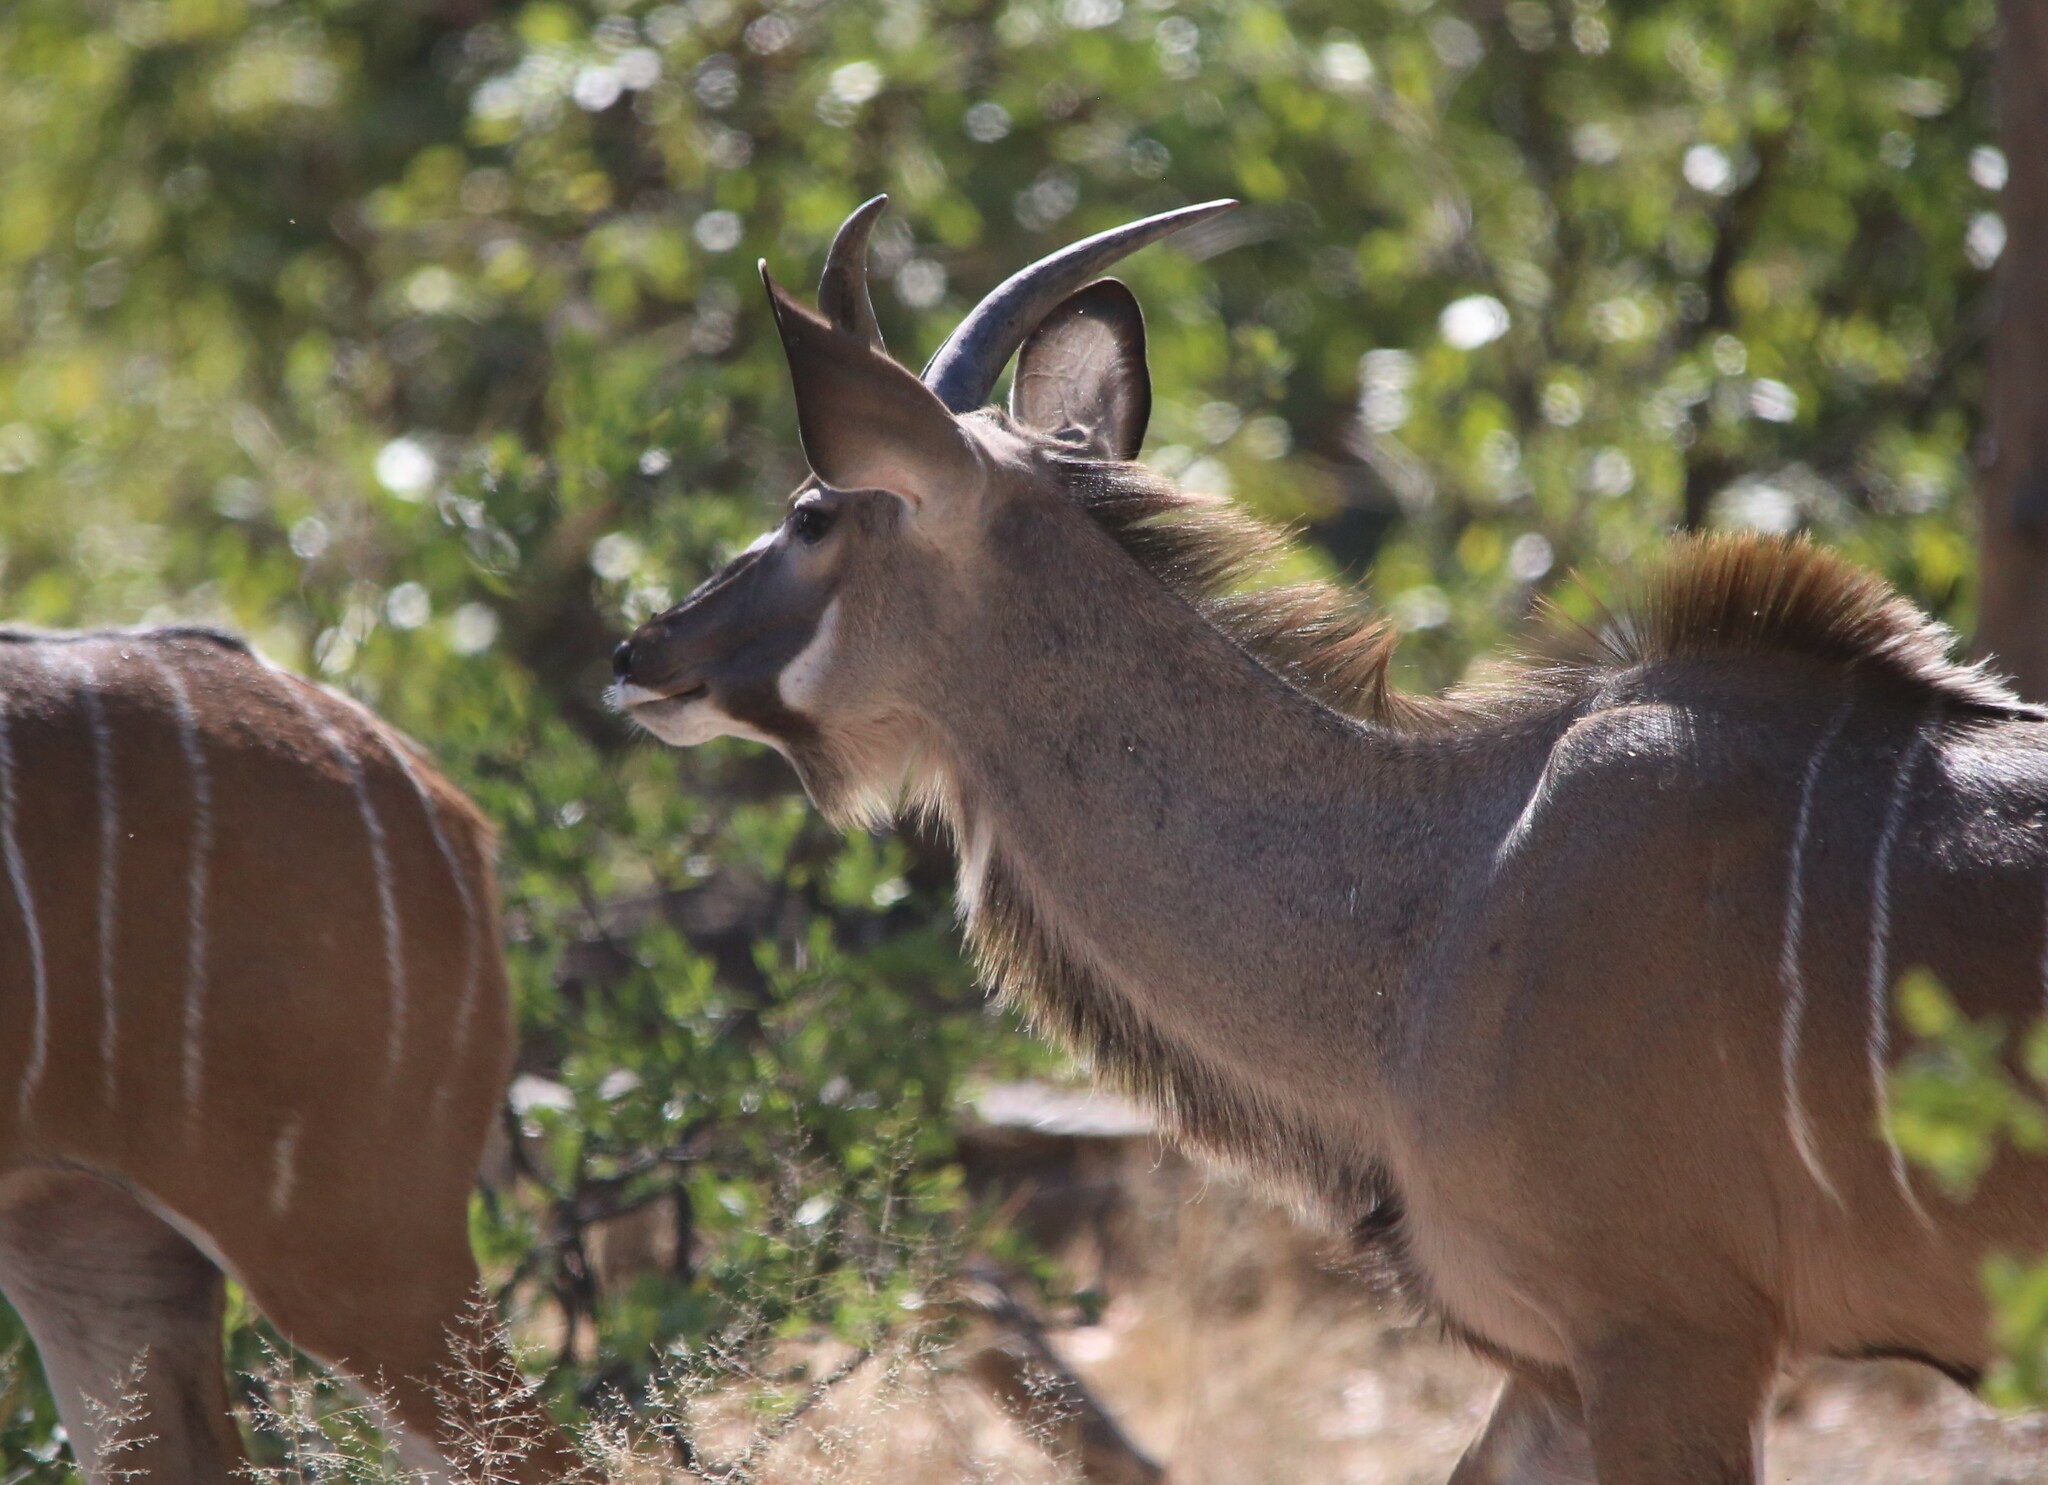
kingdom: Animalia
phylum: Chordata
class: Mammalia
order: Artiodactyla
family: Bovidae
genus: Tragelaphus
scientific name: Tragelaphus strepsiceros
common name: Greater kudu
